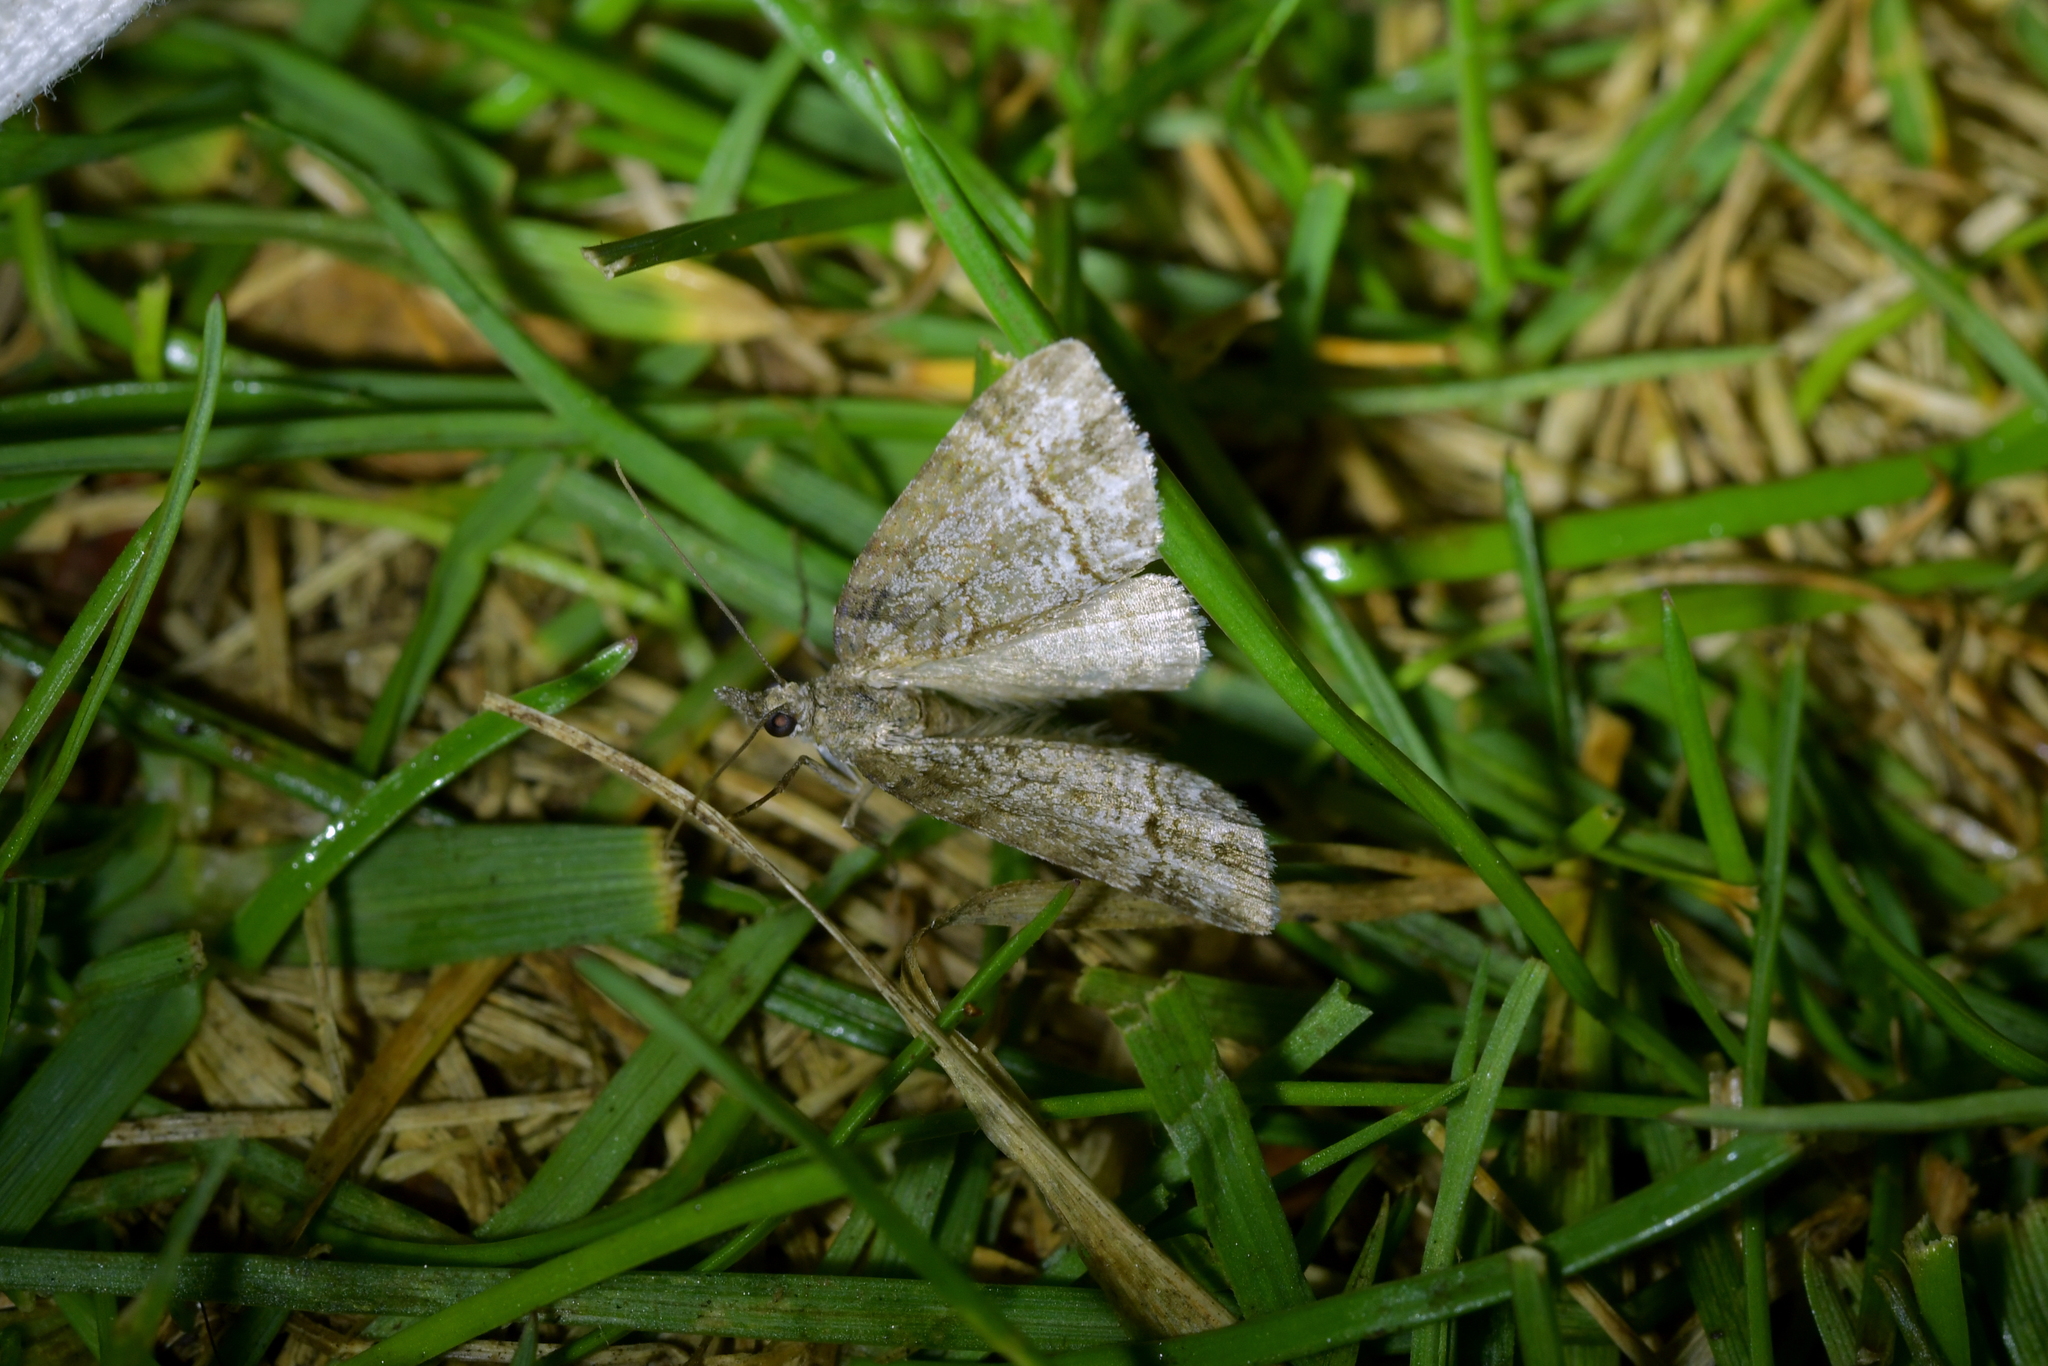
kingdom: Animalia
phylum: Arthropoda
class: Insecta
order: Lepidoptera
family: Geometridae
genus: Microdes
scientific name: Microdes quadristrigata
